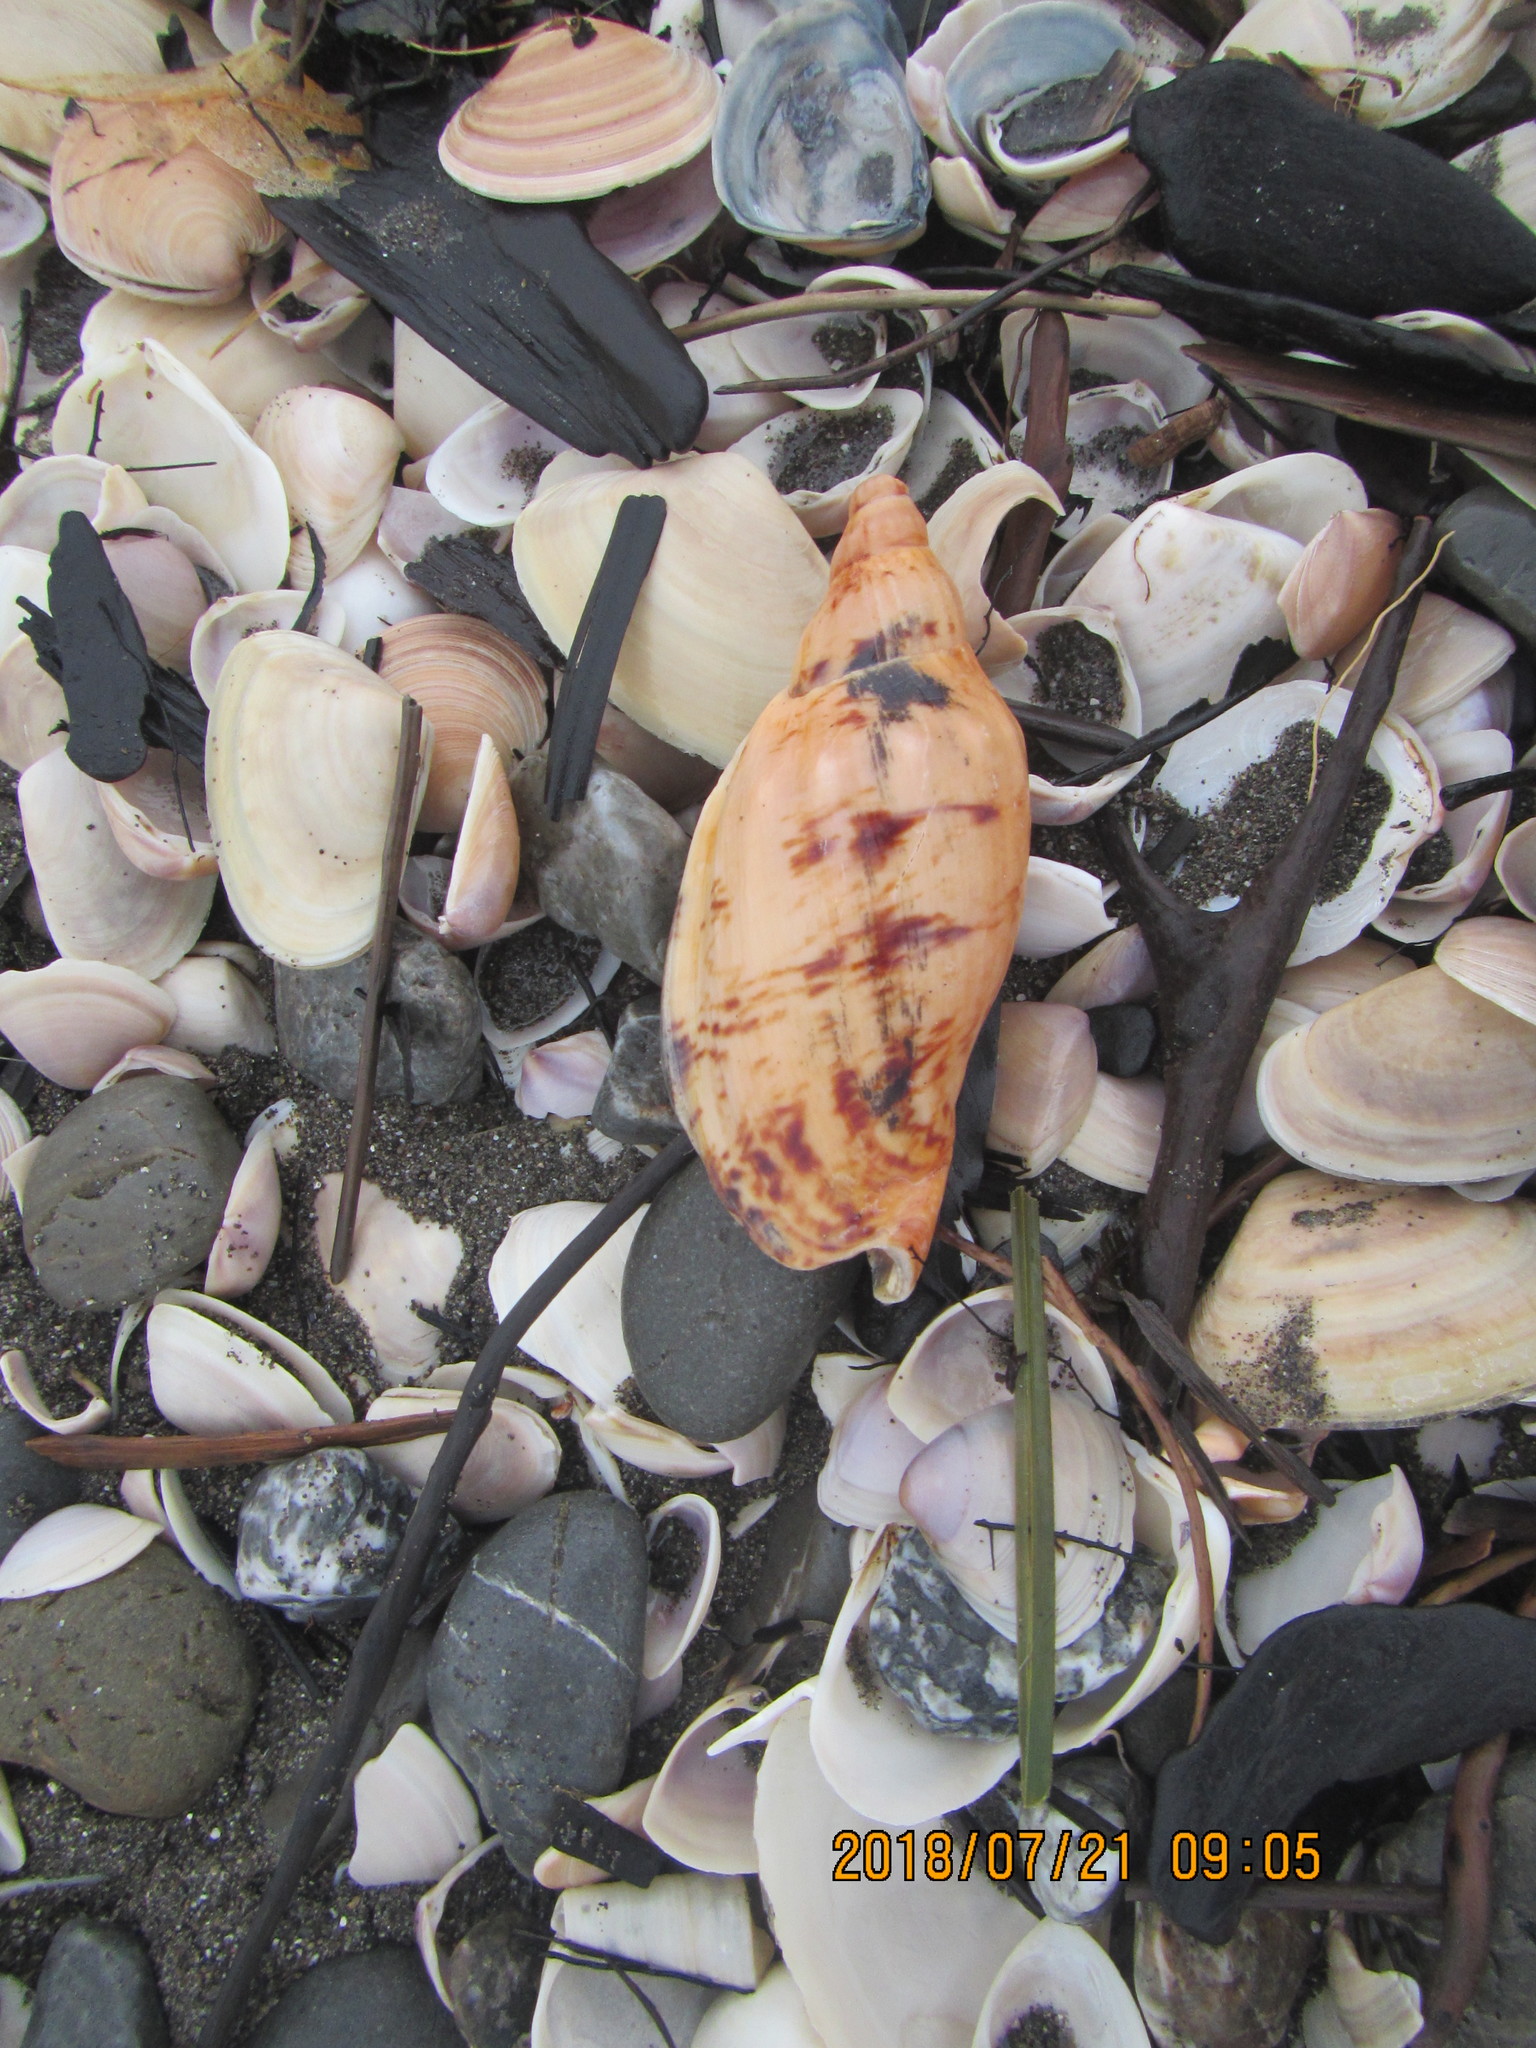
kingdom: Animalia
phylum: Mollusca
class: Gastropoda
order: Neogastropoda
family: Volutidae
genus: Alcithoe
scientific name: Alcithoe arabica
